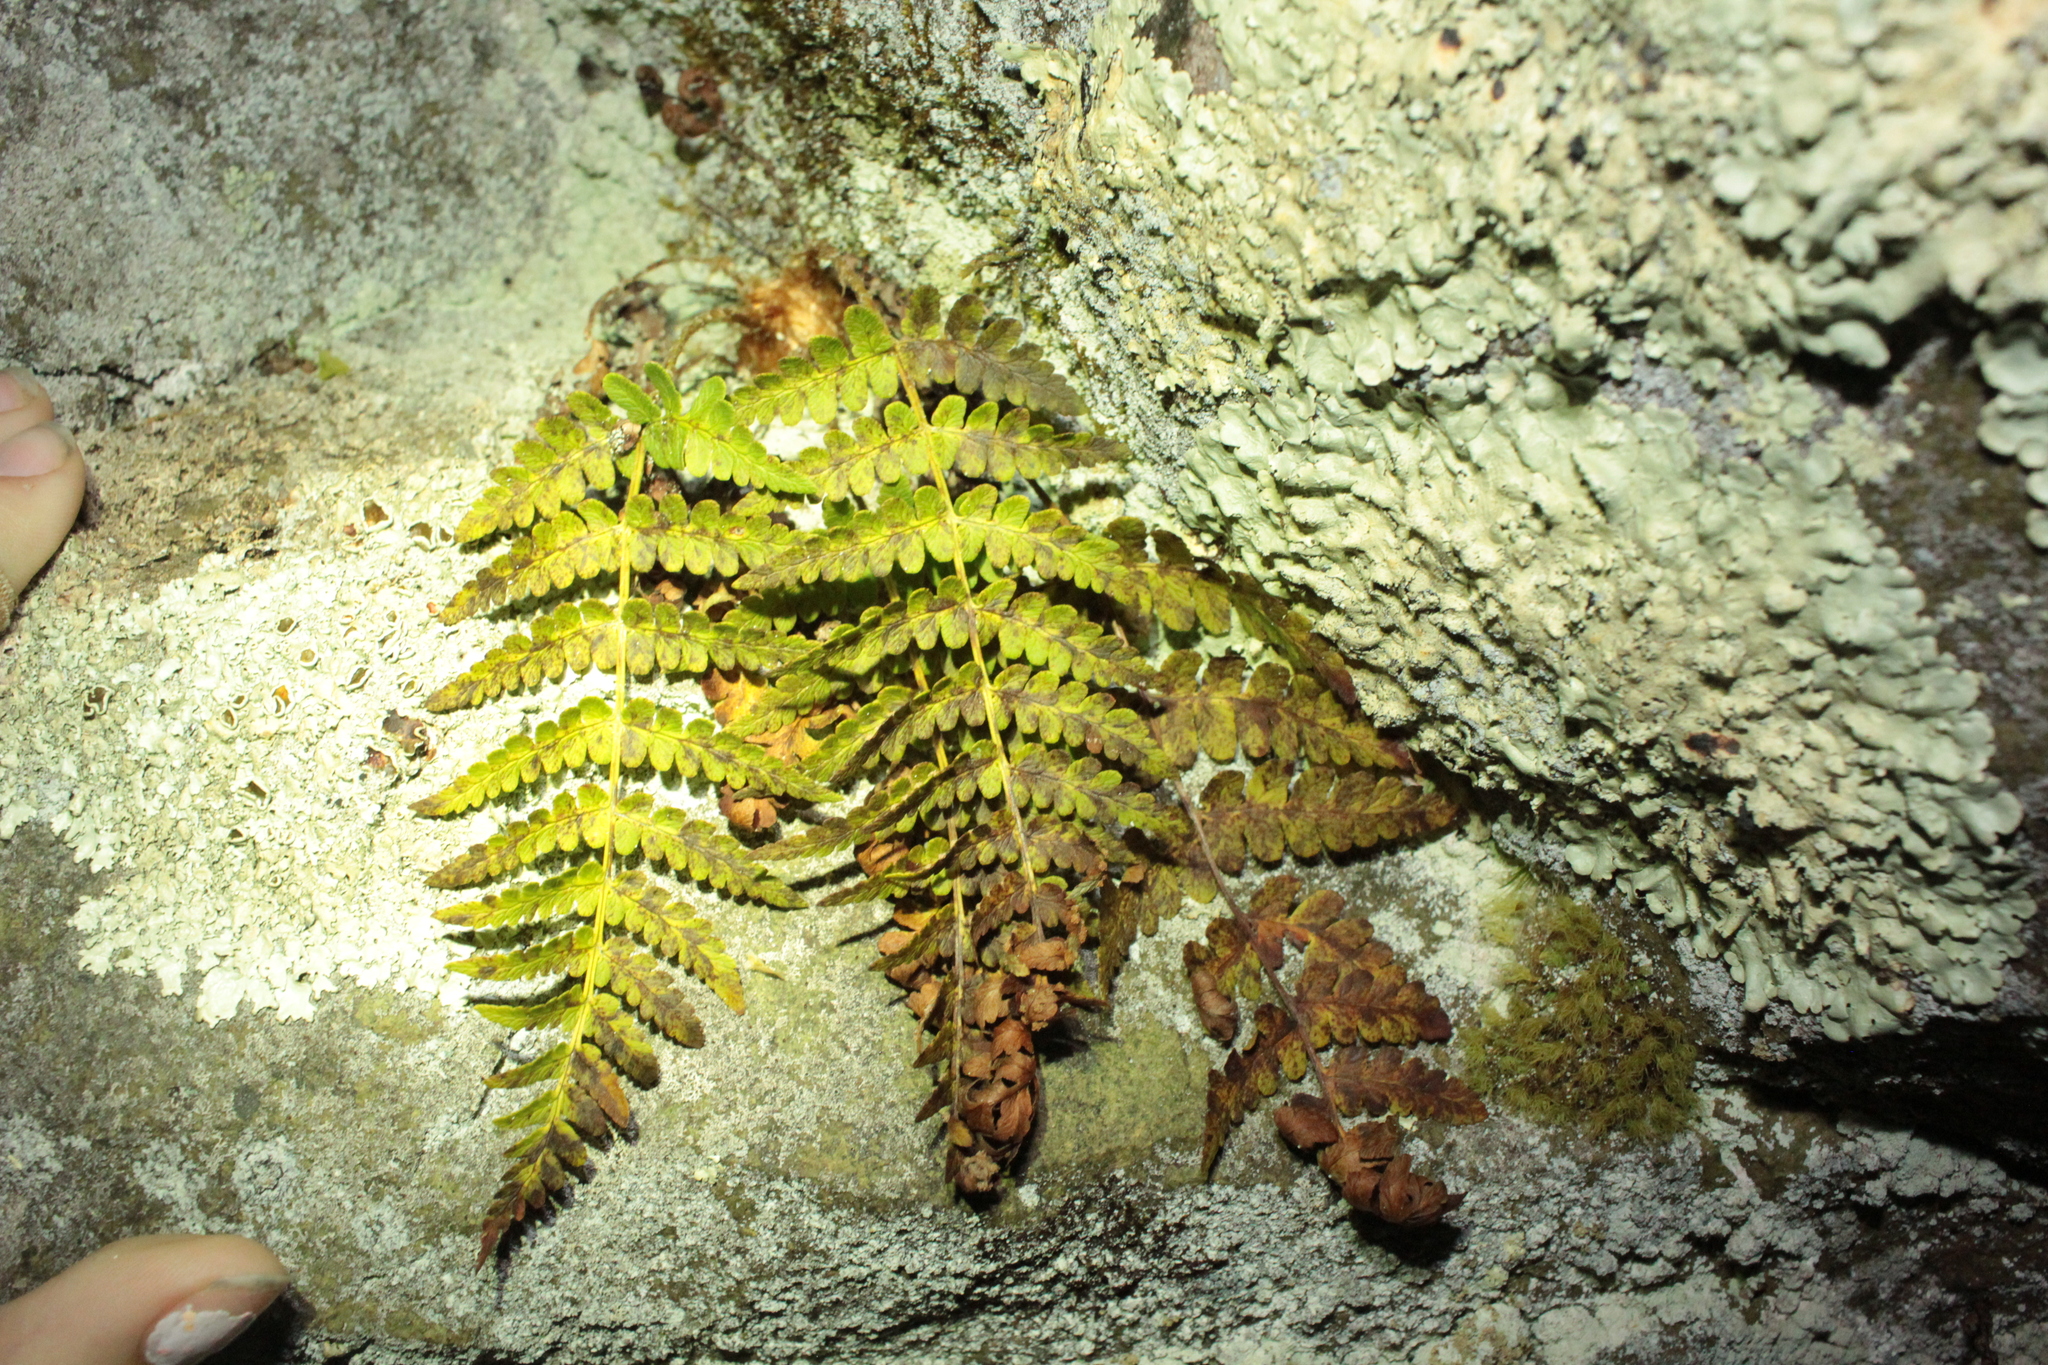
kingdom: Plantae
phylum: Tracheophyta
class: Polypodiopsida
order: Polypodiales
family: Dryopteridaceae
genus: Dryopteris
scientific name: Dryopteris marginalis
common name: Marginal wood fern
